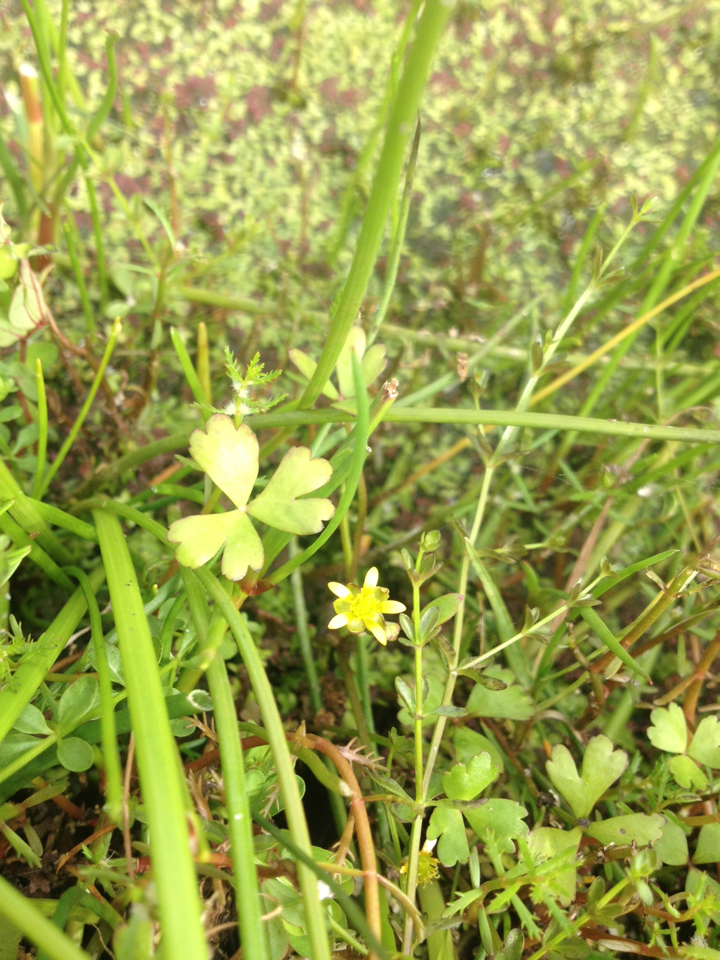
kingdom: Plantae
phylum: Tracheophyta
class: Magnoliopsida
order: Ranunculales
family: Ranunculaceae
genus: Ranunculus
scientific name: Ranunculus amphitrichus
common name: Small river buttercup
